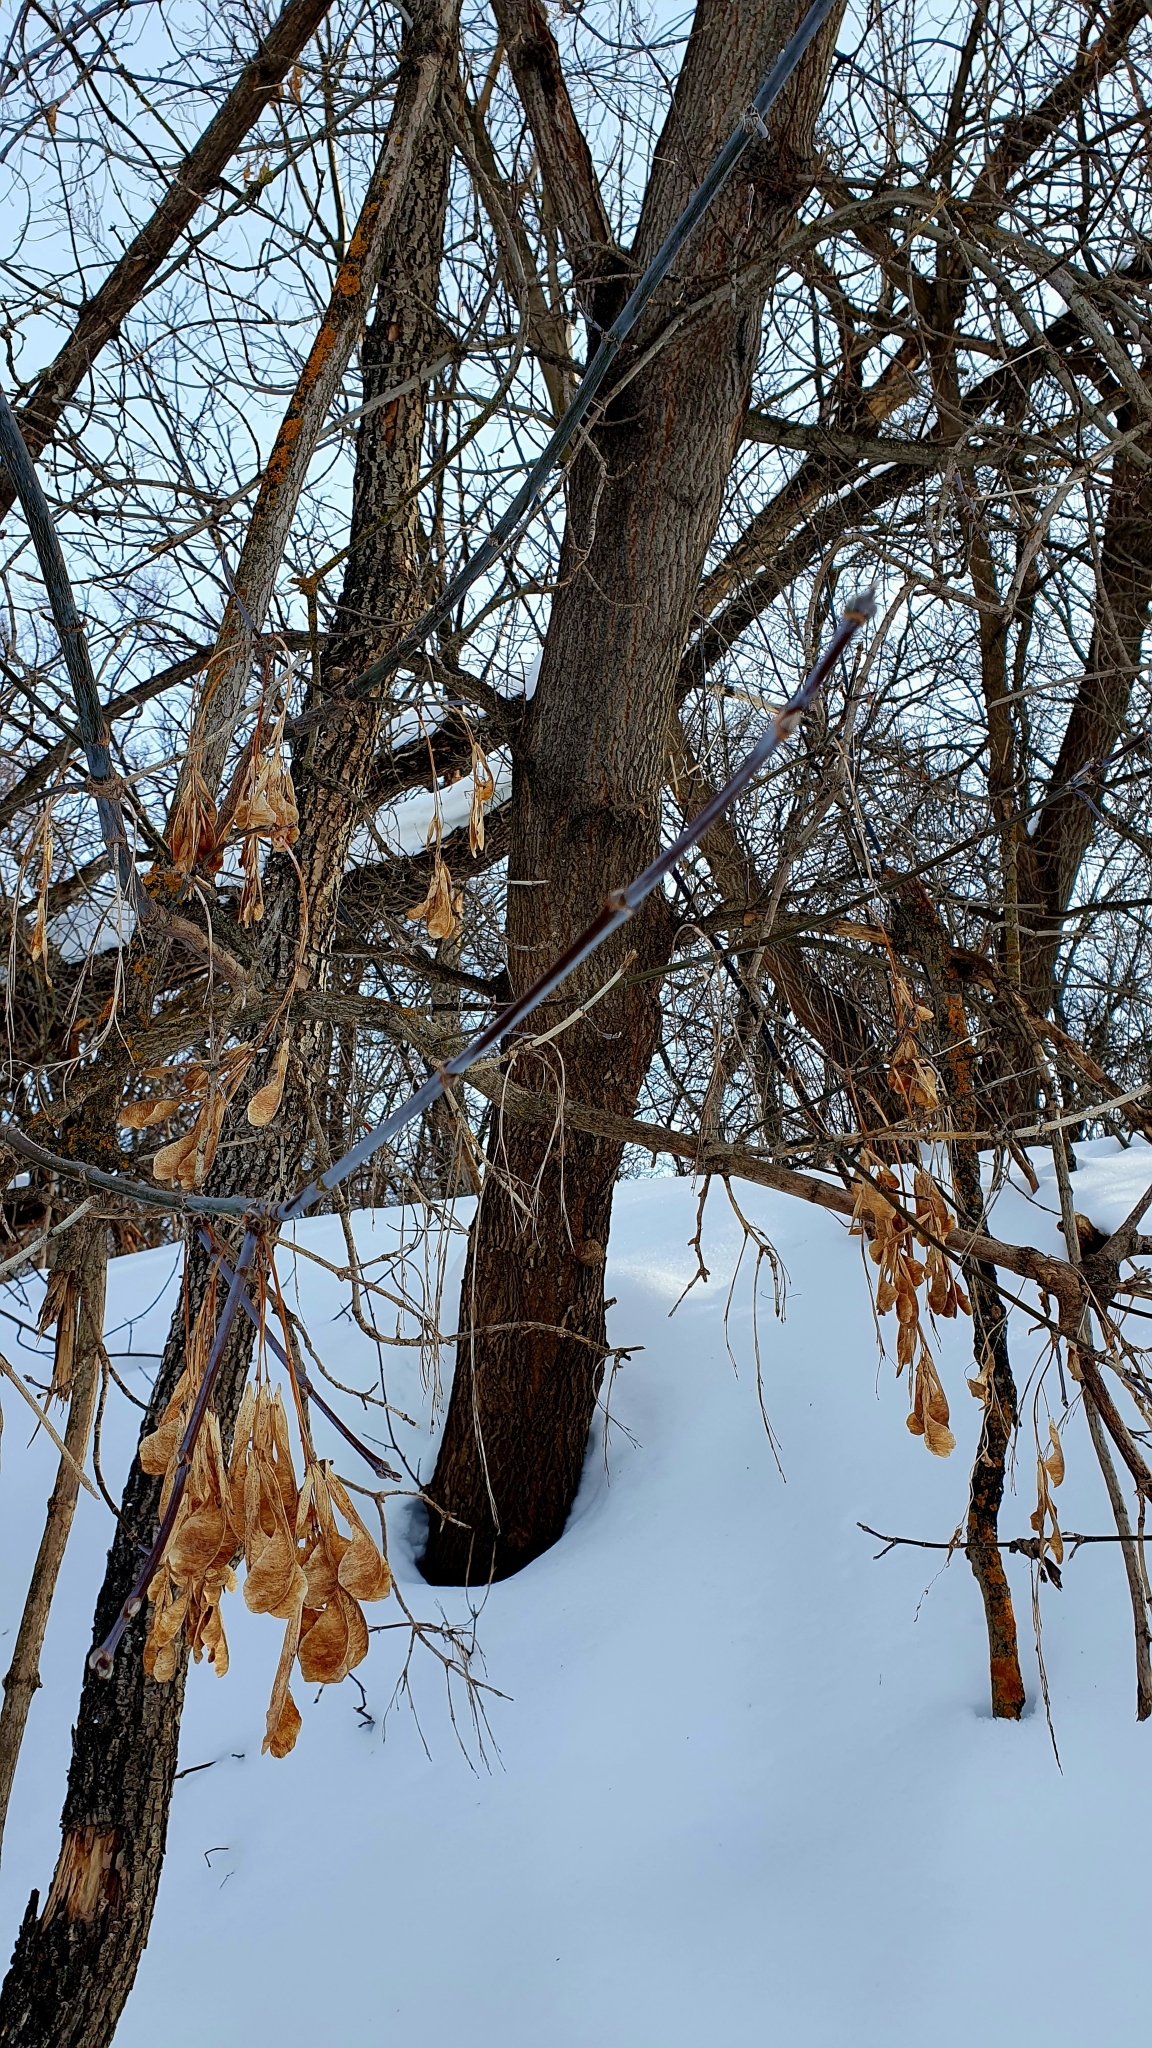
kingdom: Plantae
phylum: Tracheophyta
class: Magnoliopsida
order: Sapindales
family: Sapindaceae
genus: Acer
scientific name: Acer negundo
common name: Ashleaf maple
